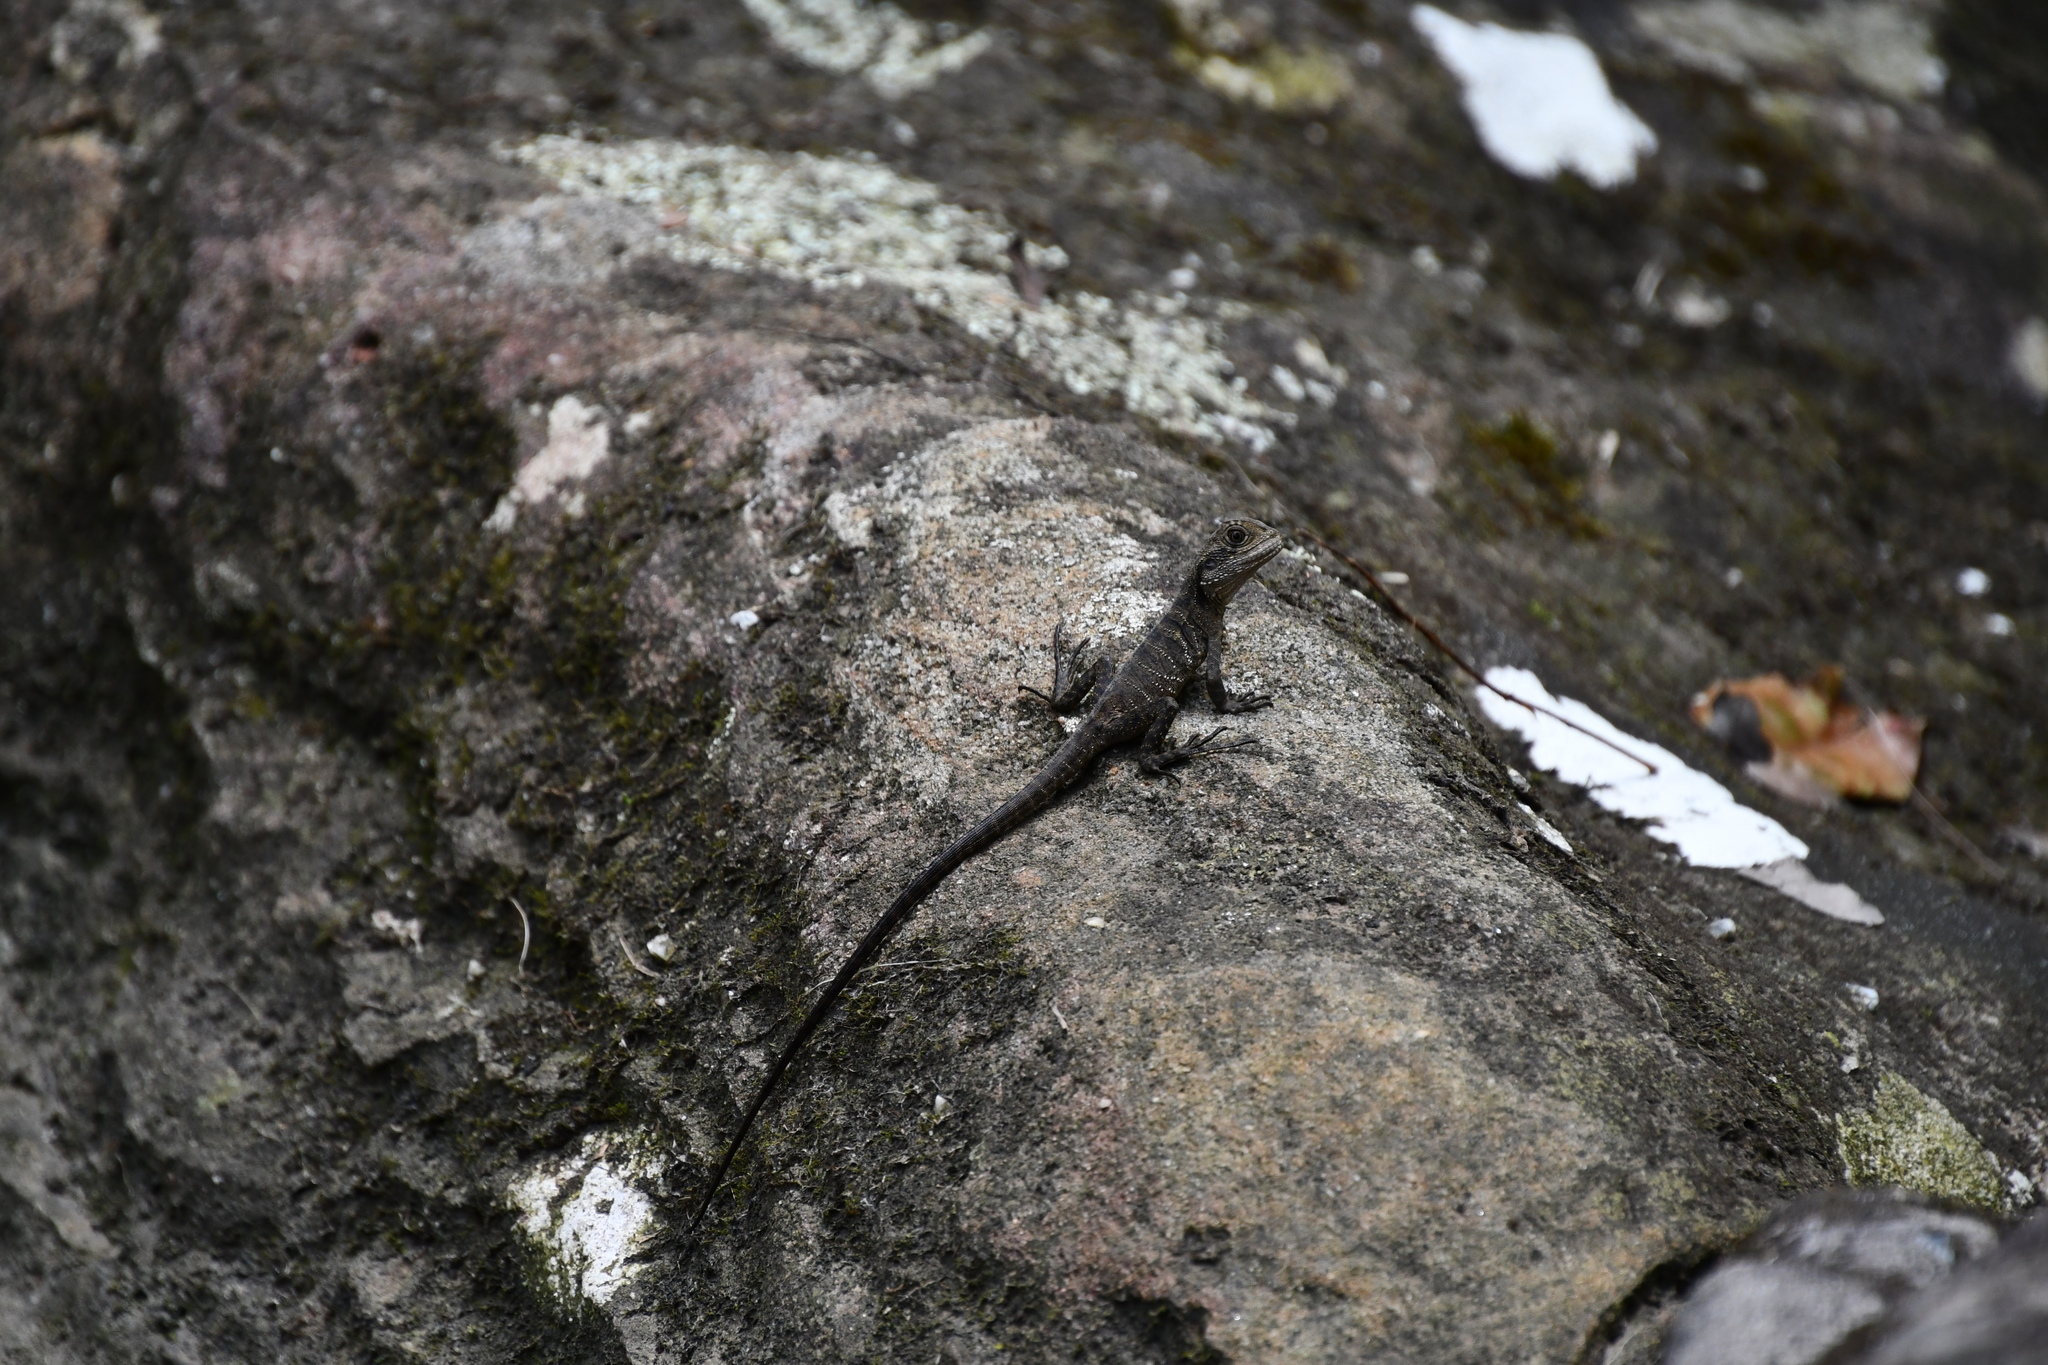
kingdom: Animalia
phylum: Chordata
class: Squamata
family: Agamidae
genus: Intellagama
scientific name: Intellagama lesueurii
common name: Eastern water dragon
